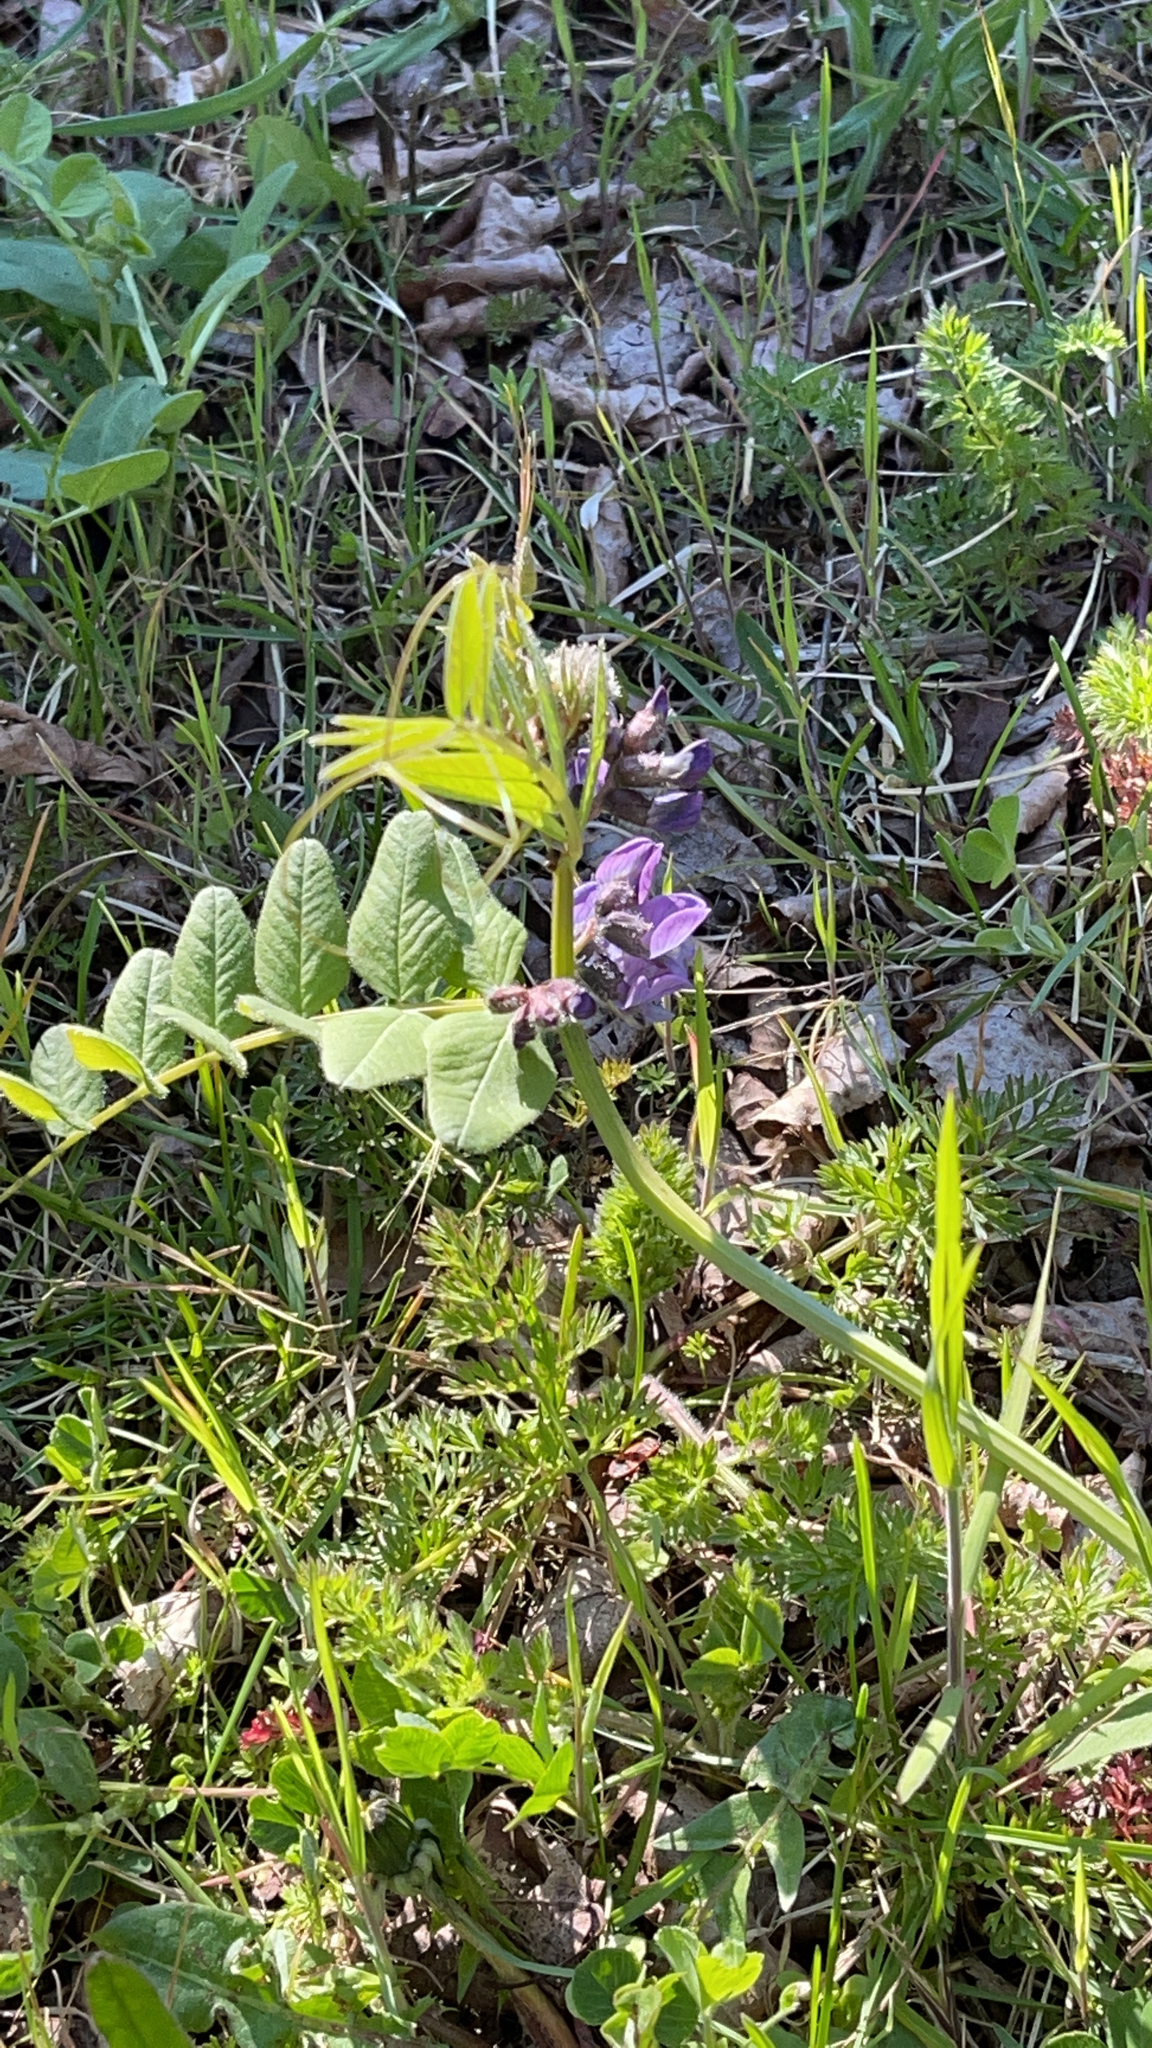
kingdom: Plantae
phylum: Tracheophyta
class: Magnoliopsida
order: Fabales
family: Fabaceae
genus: Vicia
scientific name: Vicia sepium
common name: Bush vetch
